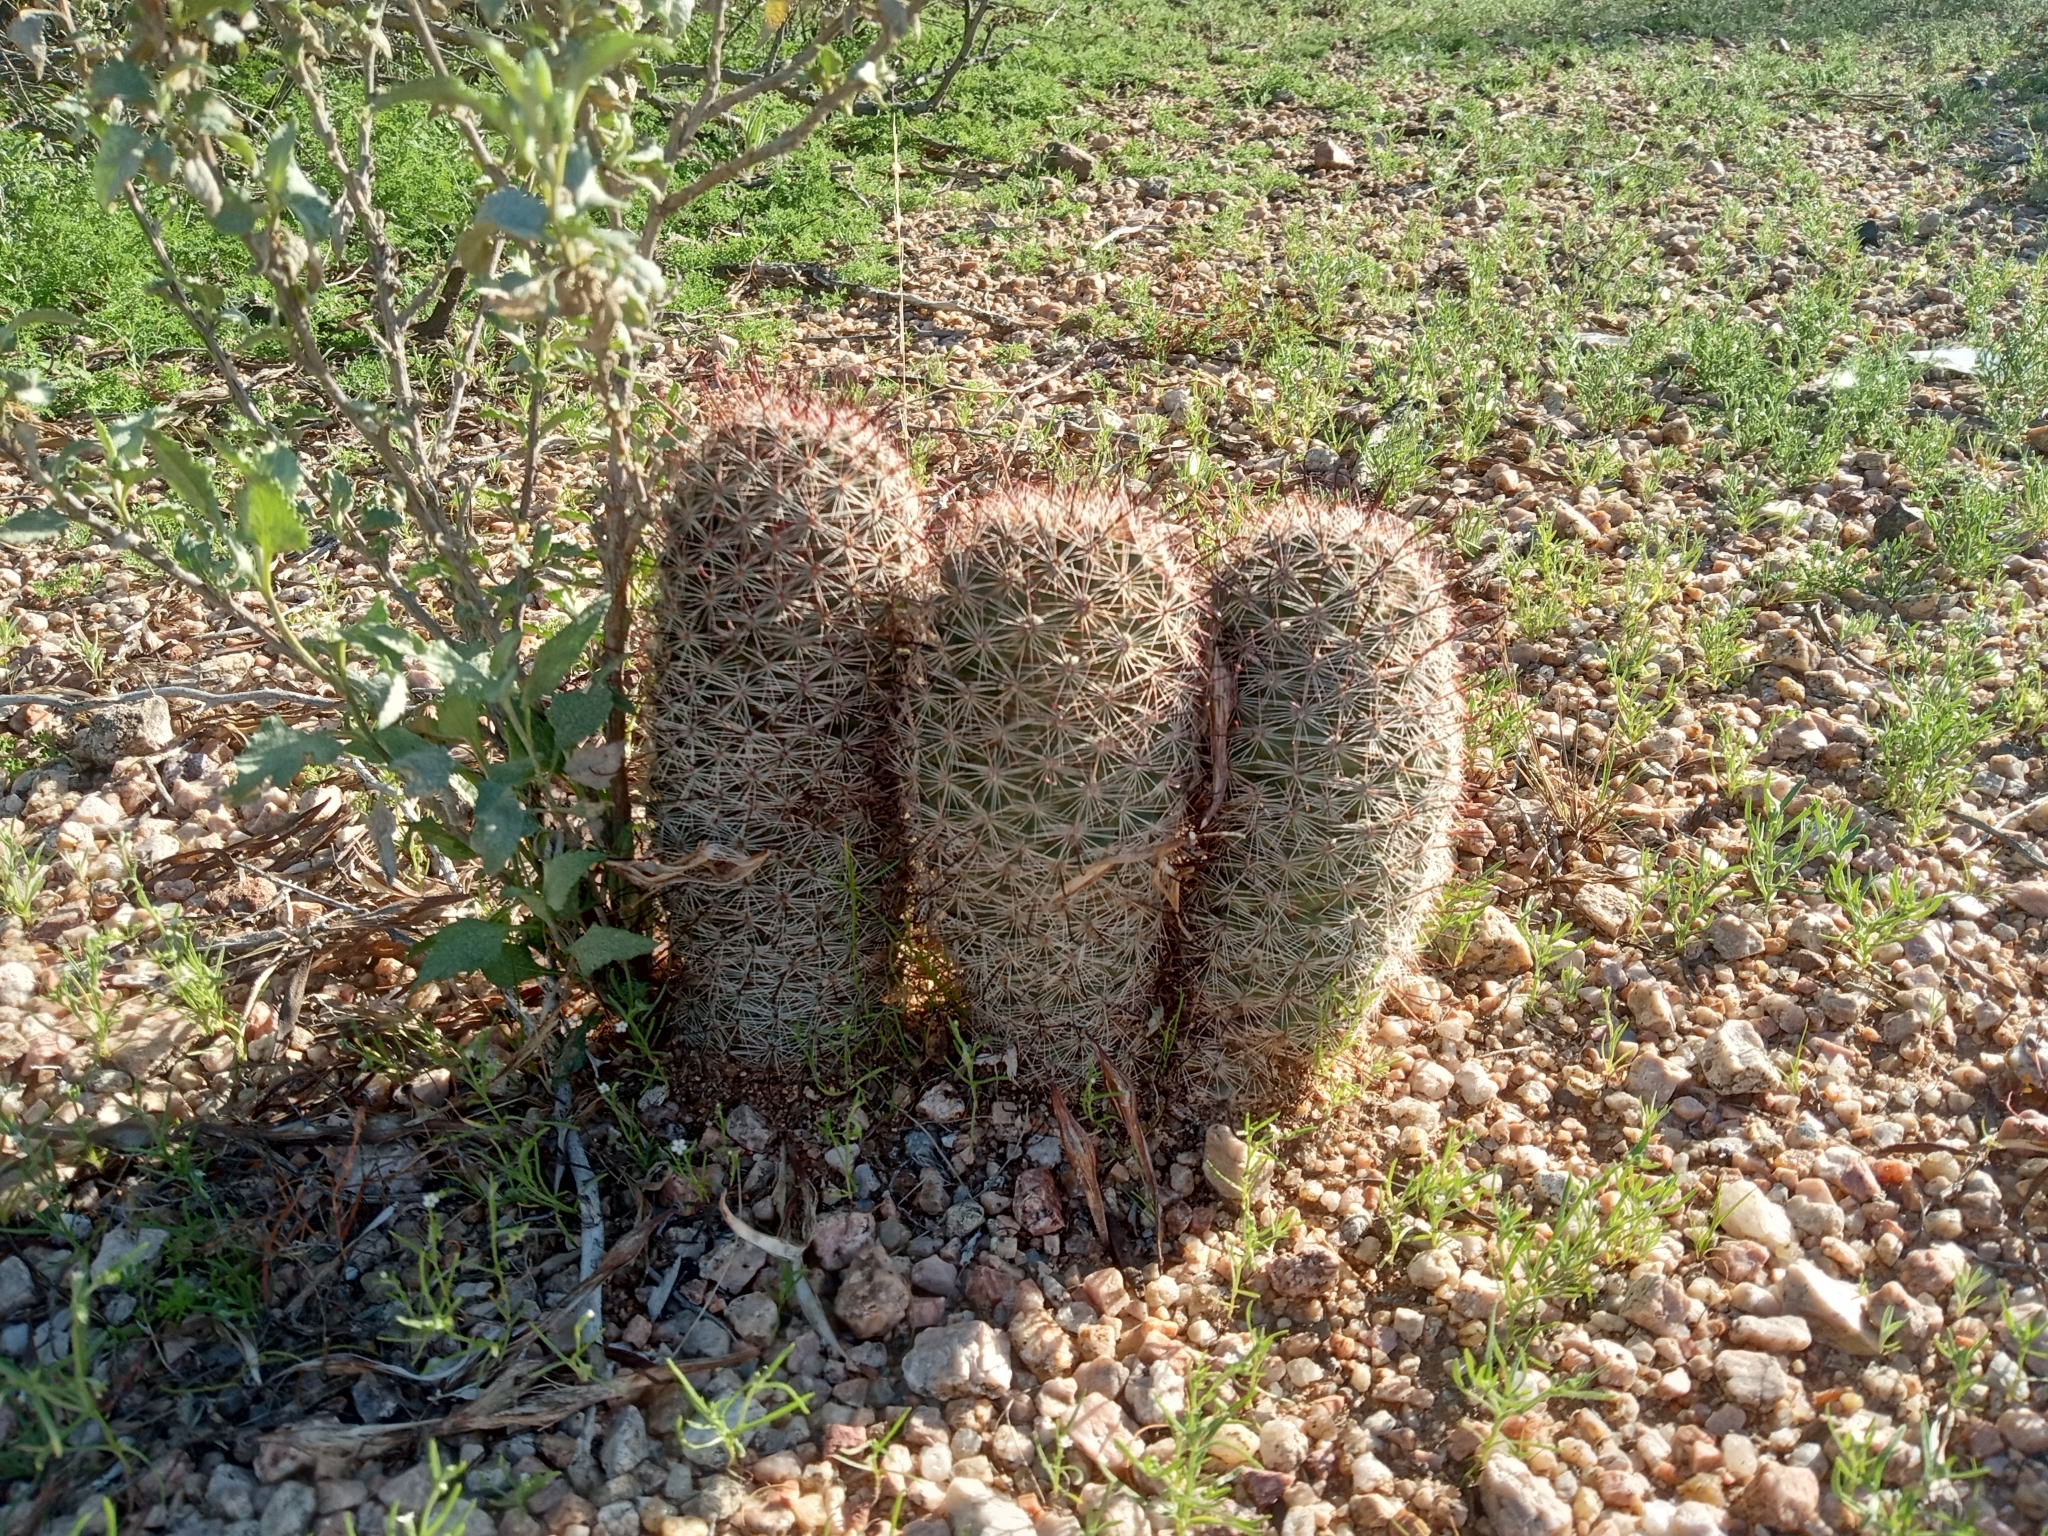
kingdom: Plantae
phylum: Tracheophyta
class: Magnoliopsida
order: Caryophyllales
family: Cactaceae
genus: Cochemiea
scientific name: Cochemiea grahamii
